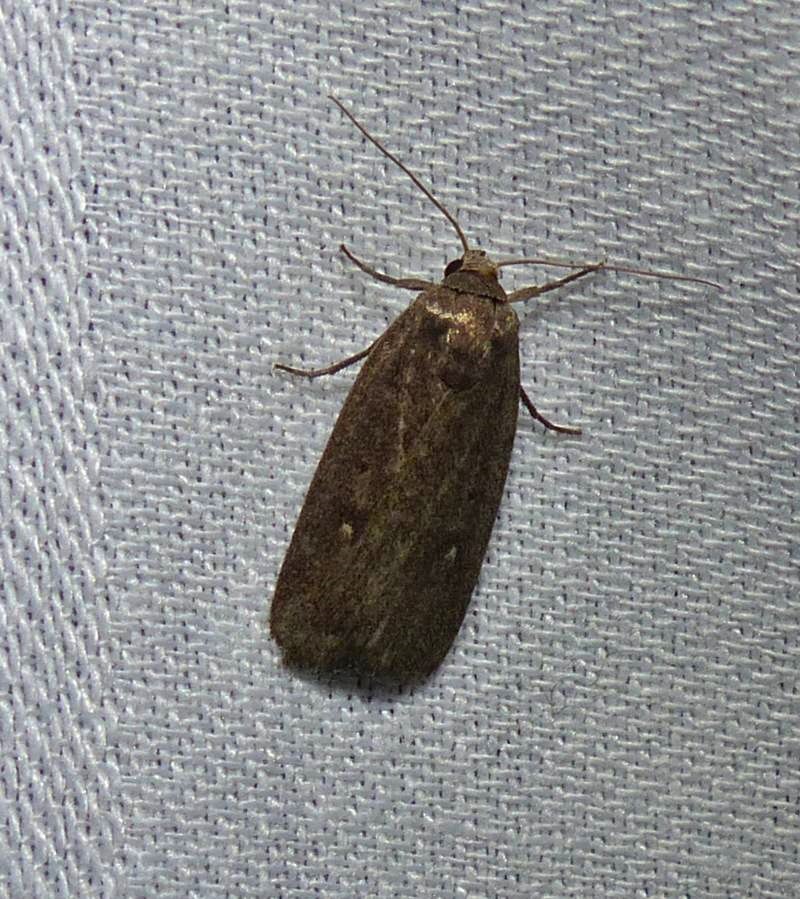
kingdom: Animalia
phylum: Arthropoda
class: Insecta
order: Lepidoptera
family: Noctuidae
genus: Proxenus
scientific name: Proxenus miranda
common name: Miranda moth
